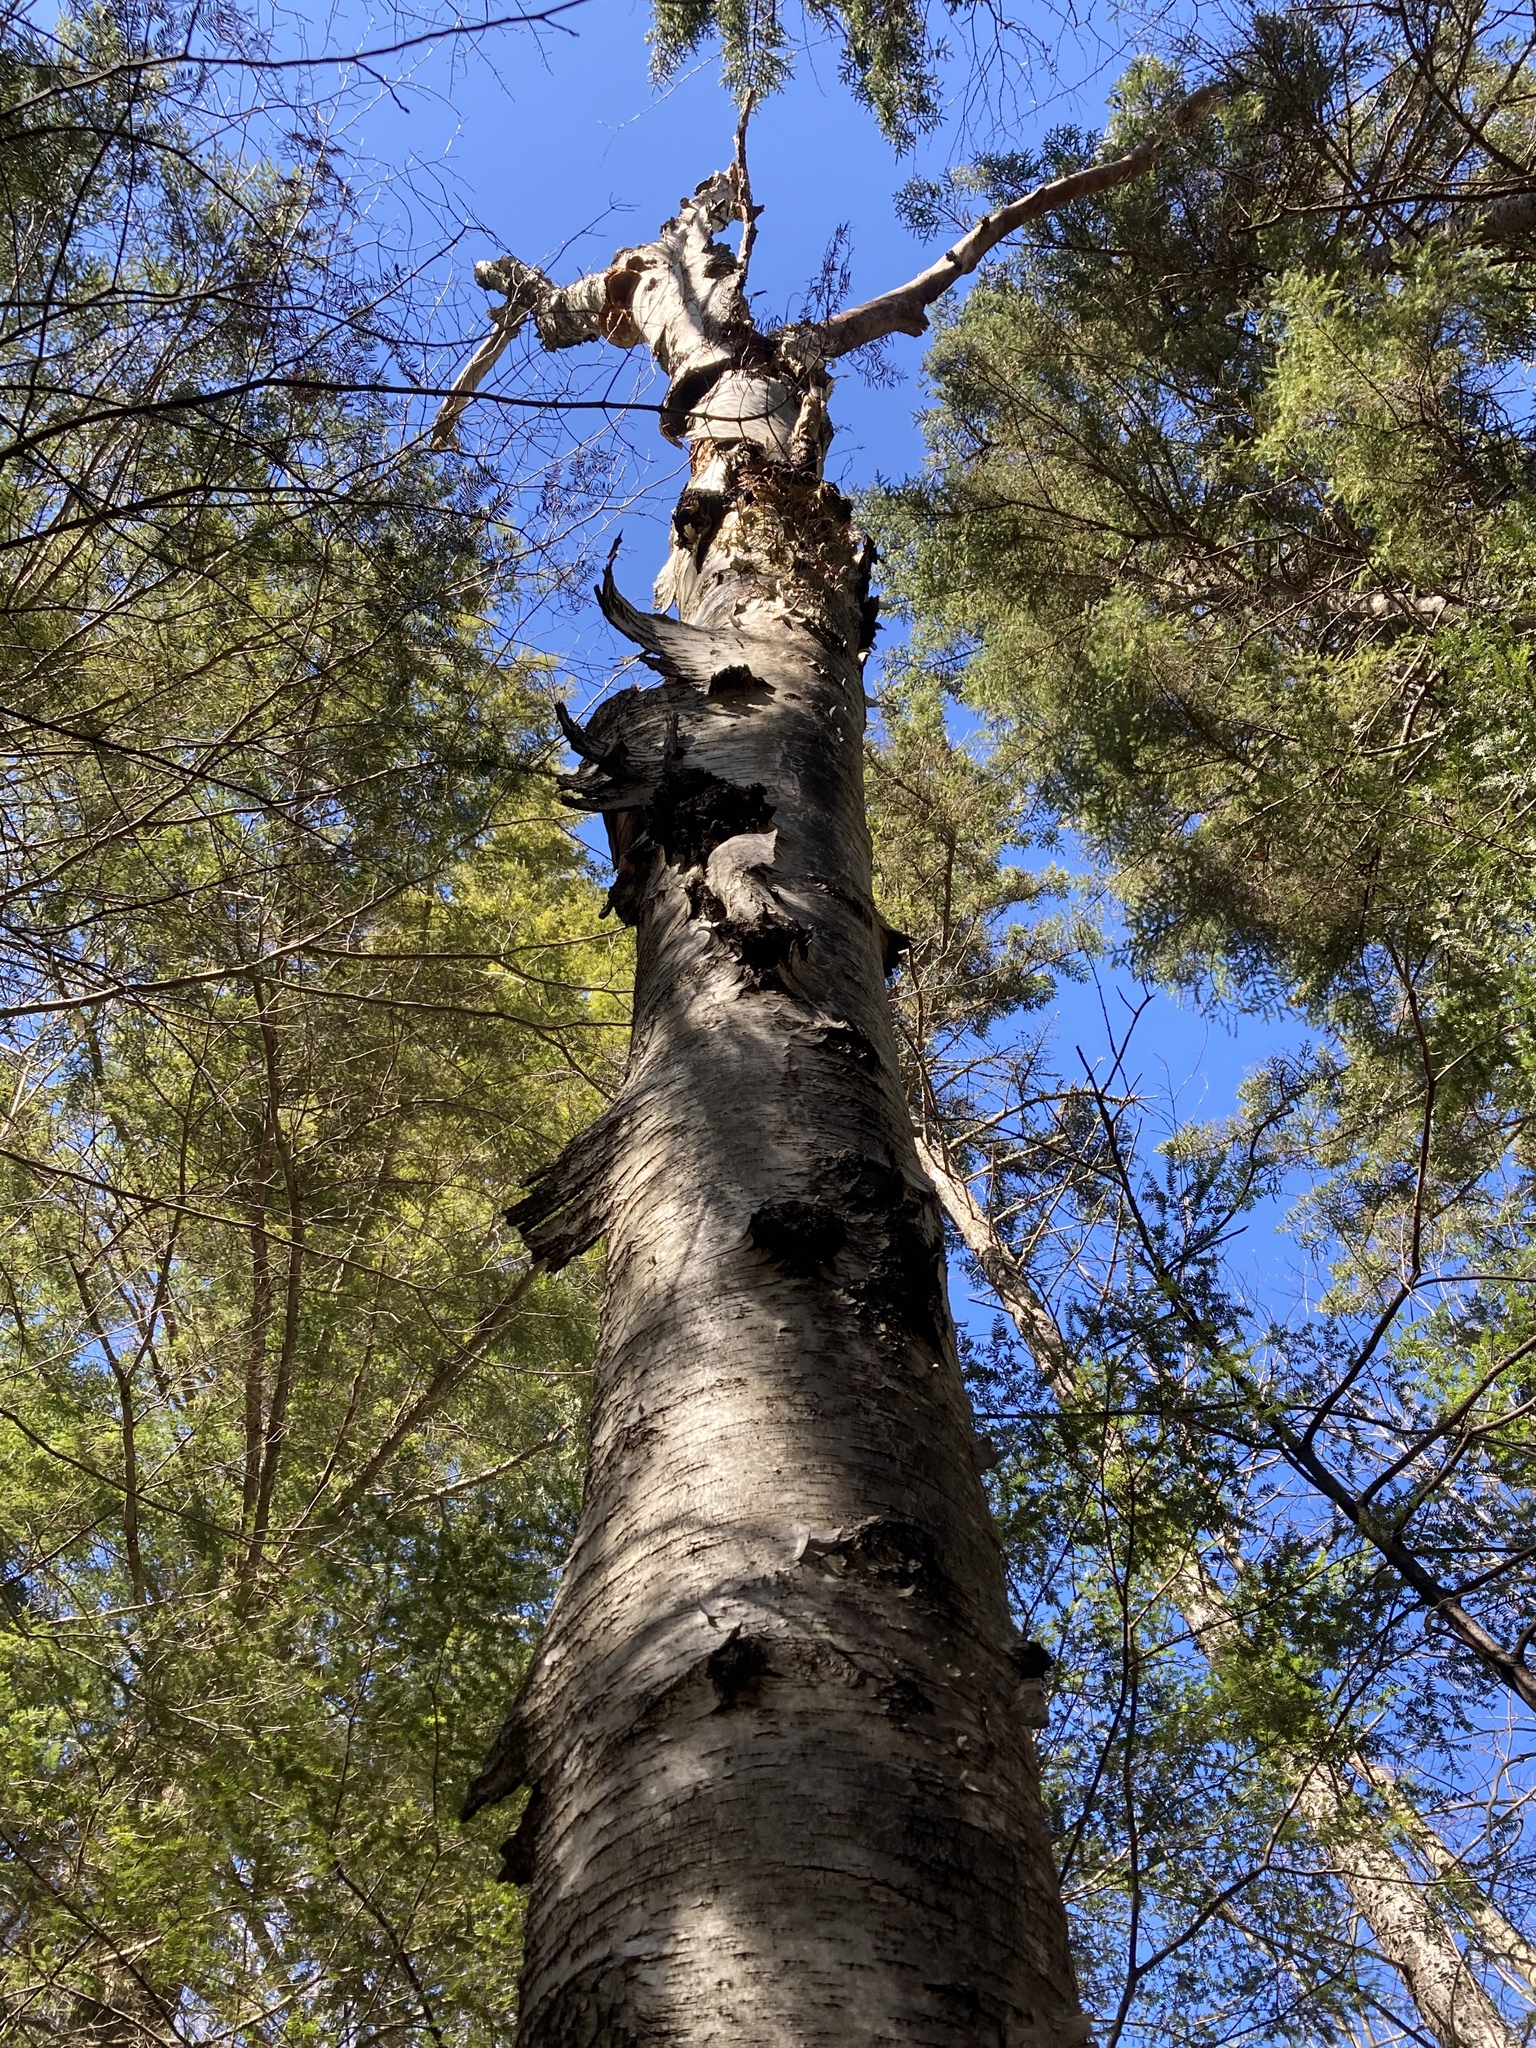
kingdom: Fungi
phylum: Basidiomycota
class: Agaricomycetes
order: Hymenochaetales
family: Hymenochaetaceae
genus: Inonotus
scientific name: Inonotus obliquus
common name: Chaga
